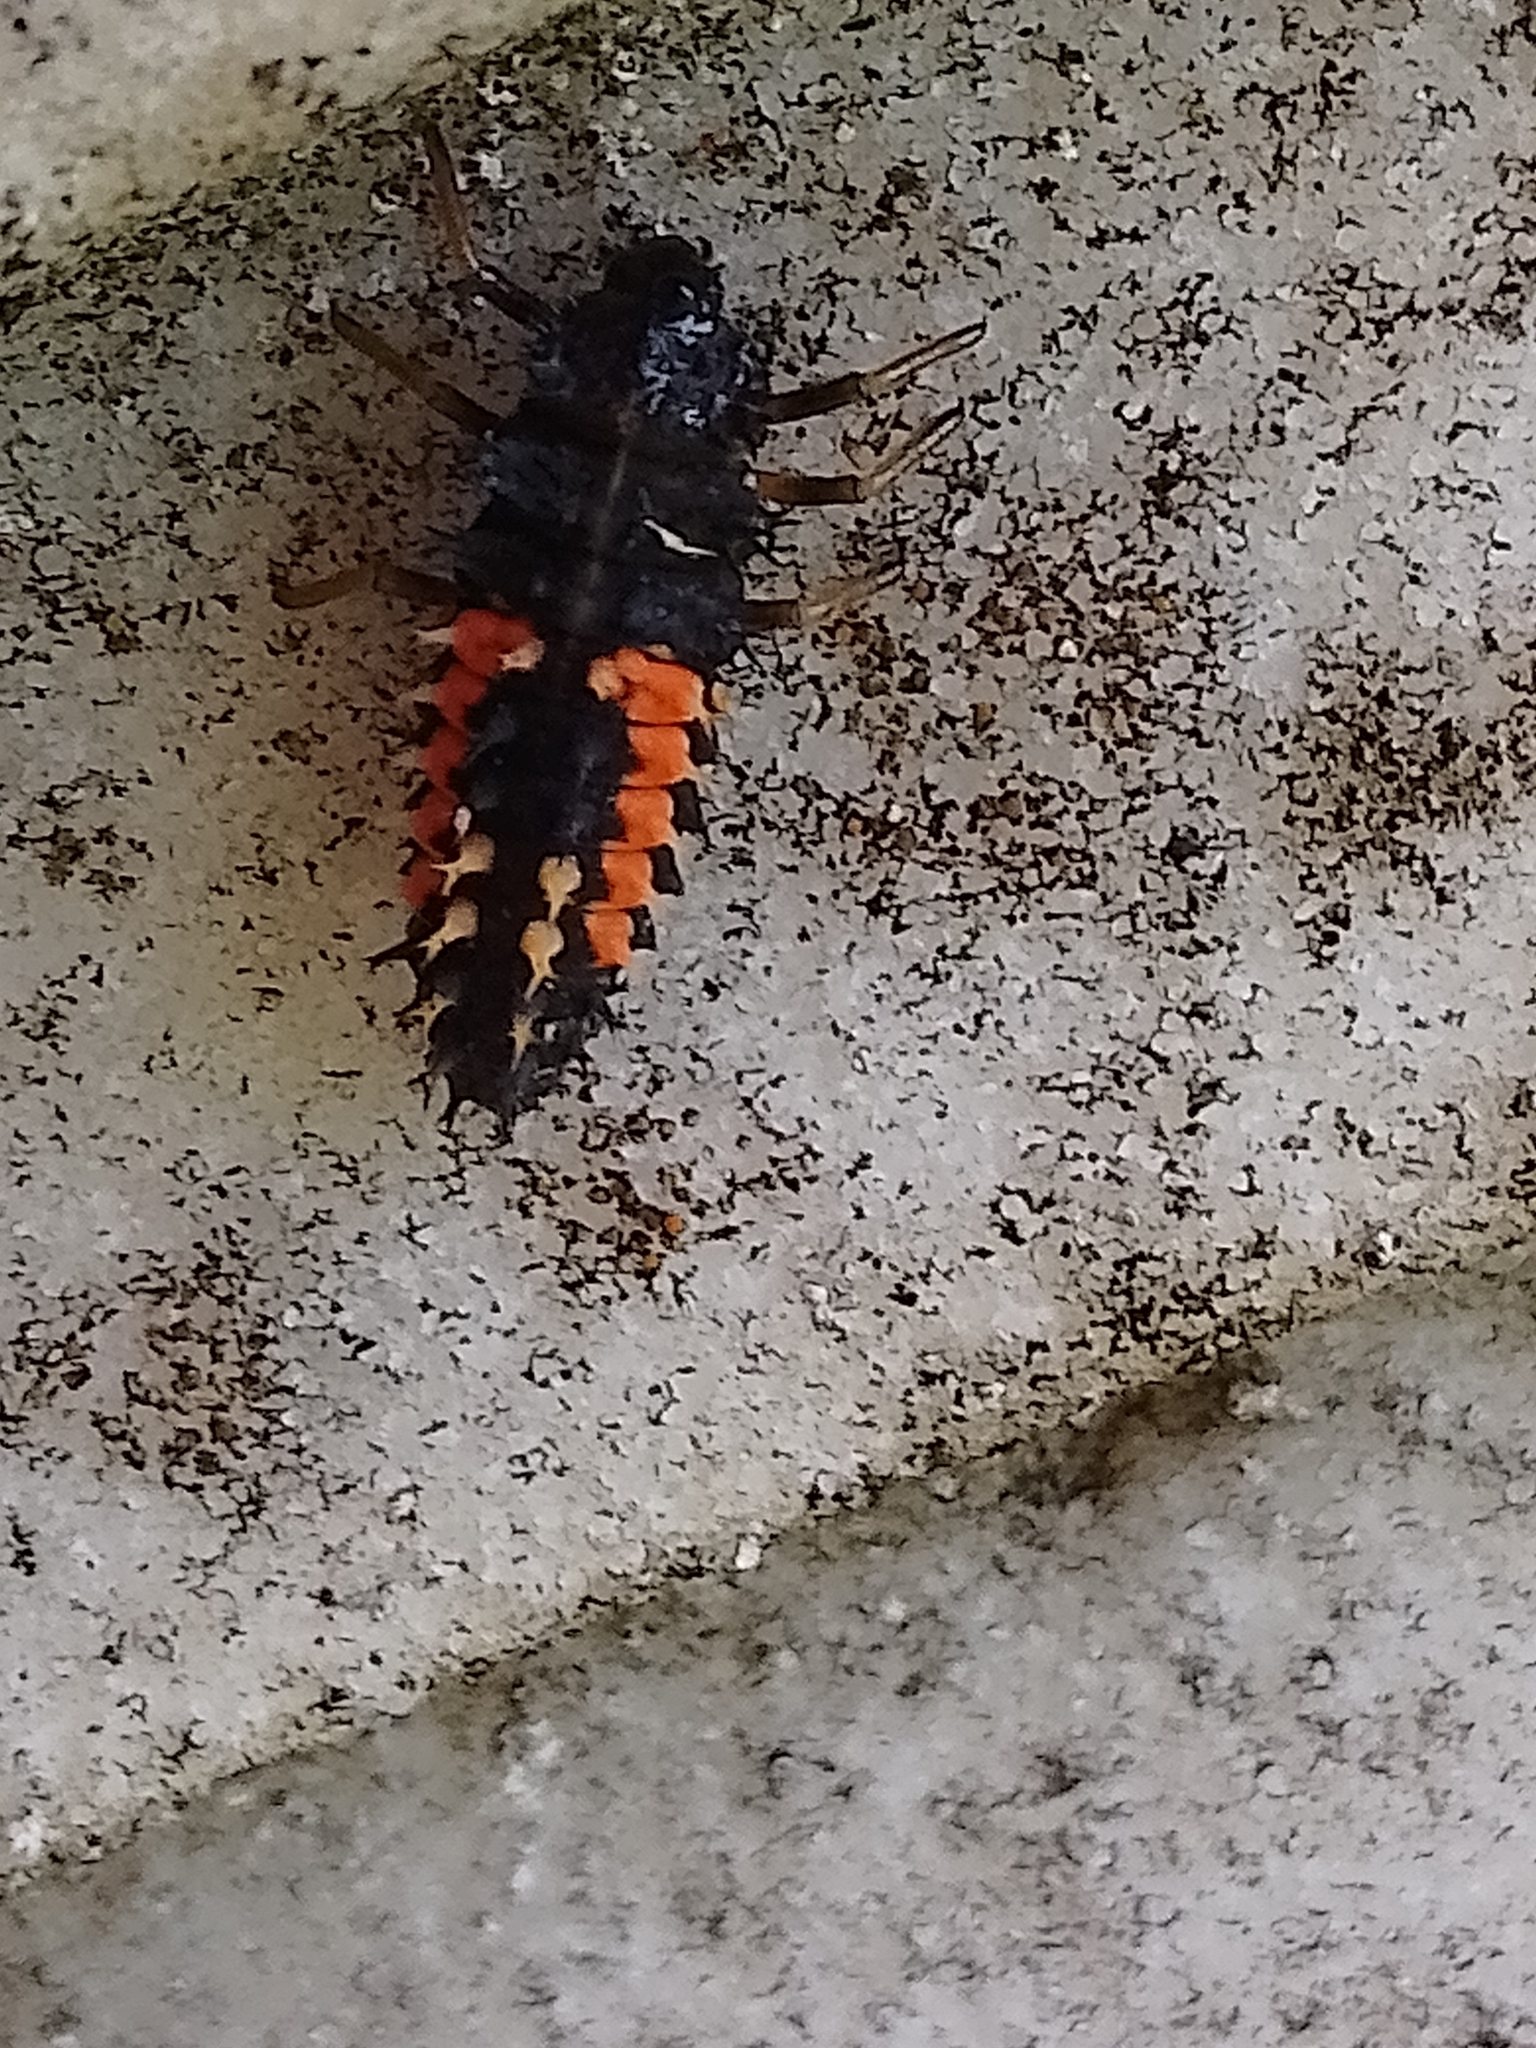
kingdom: Animalia
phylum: Arthropoda
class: Insecta
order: Coleoptera
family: Coccinellidae
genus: Harmonia
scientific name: Harmonia axyridis
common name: Harlequin ladybird
